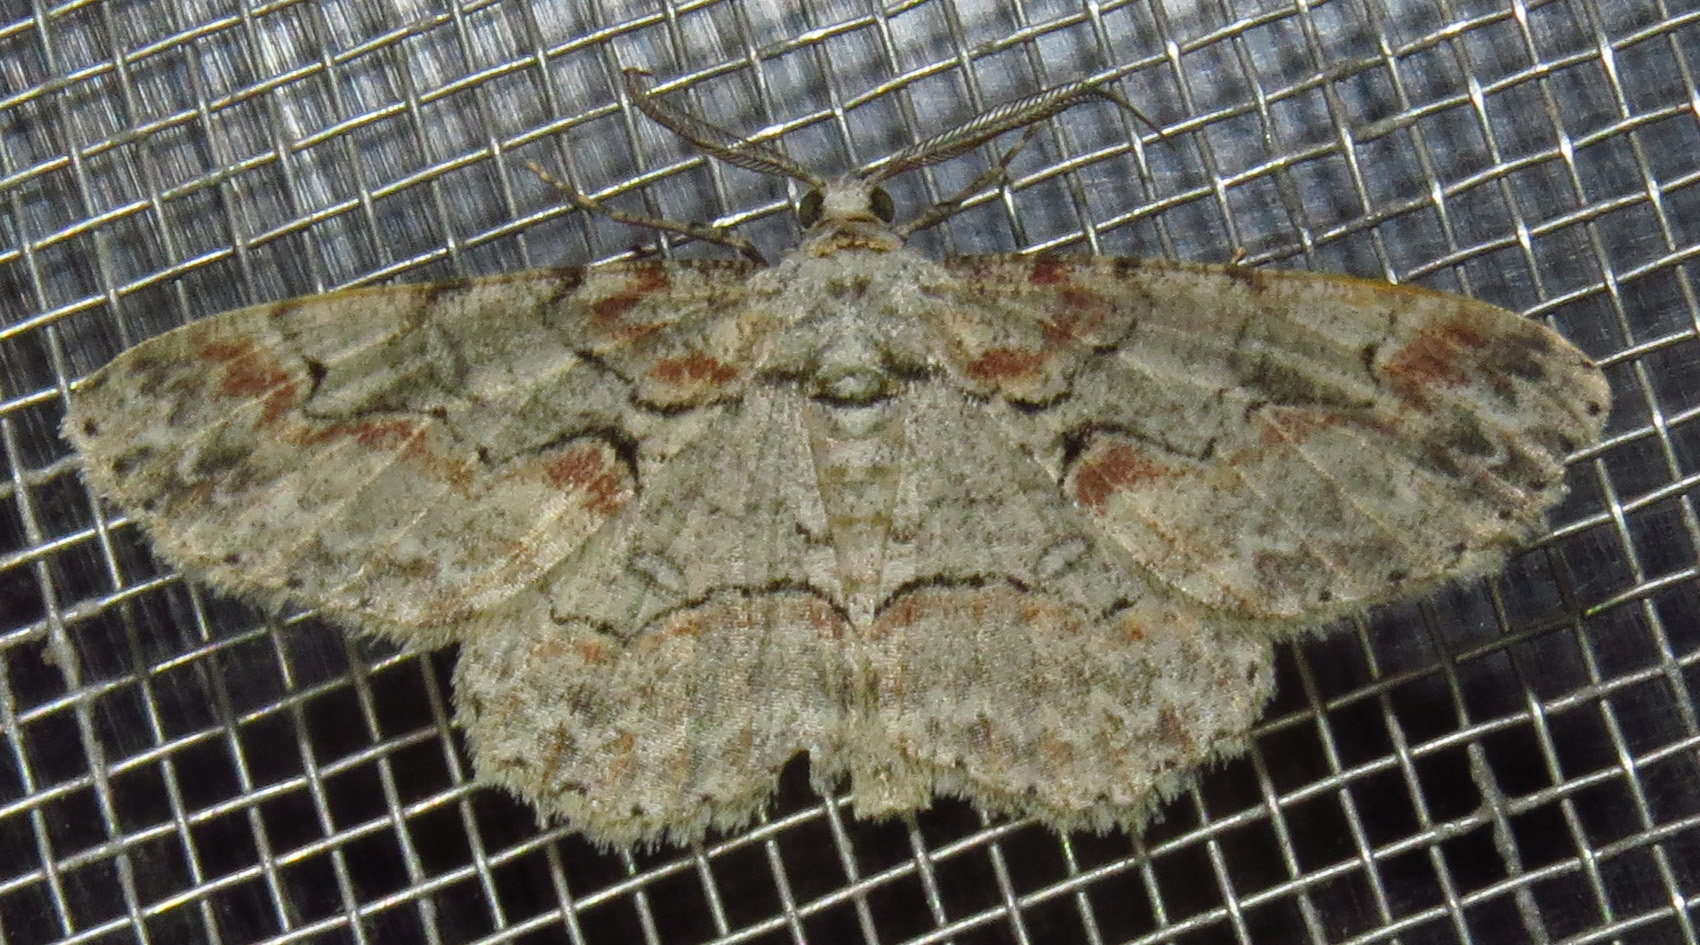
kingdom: Animalia
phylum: Arthropoda
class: Insecta
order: Lepidoptera
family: Geometridae
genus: Iridopsis
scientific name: Iridopsis defectaria
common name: Brown-shaded gray
